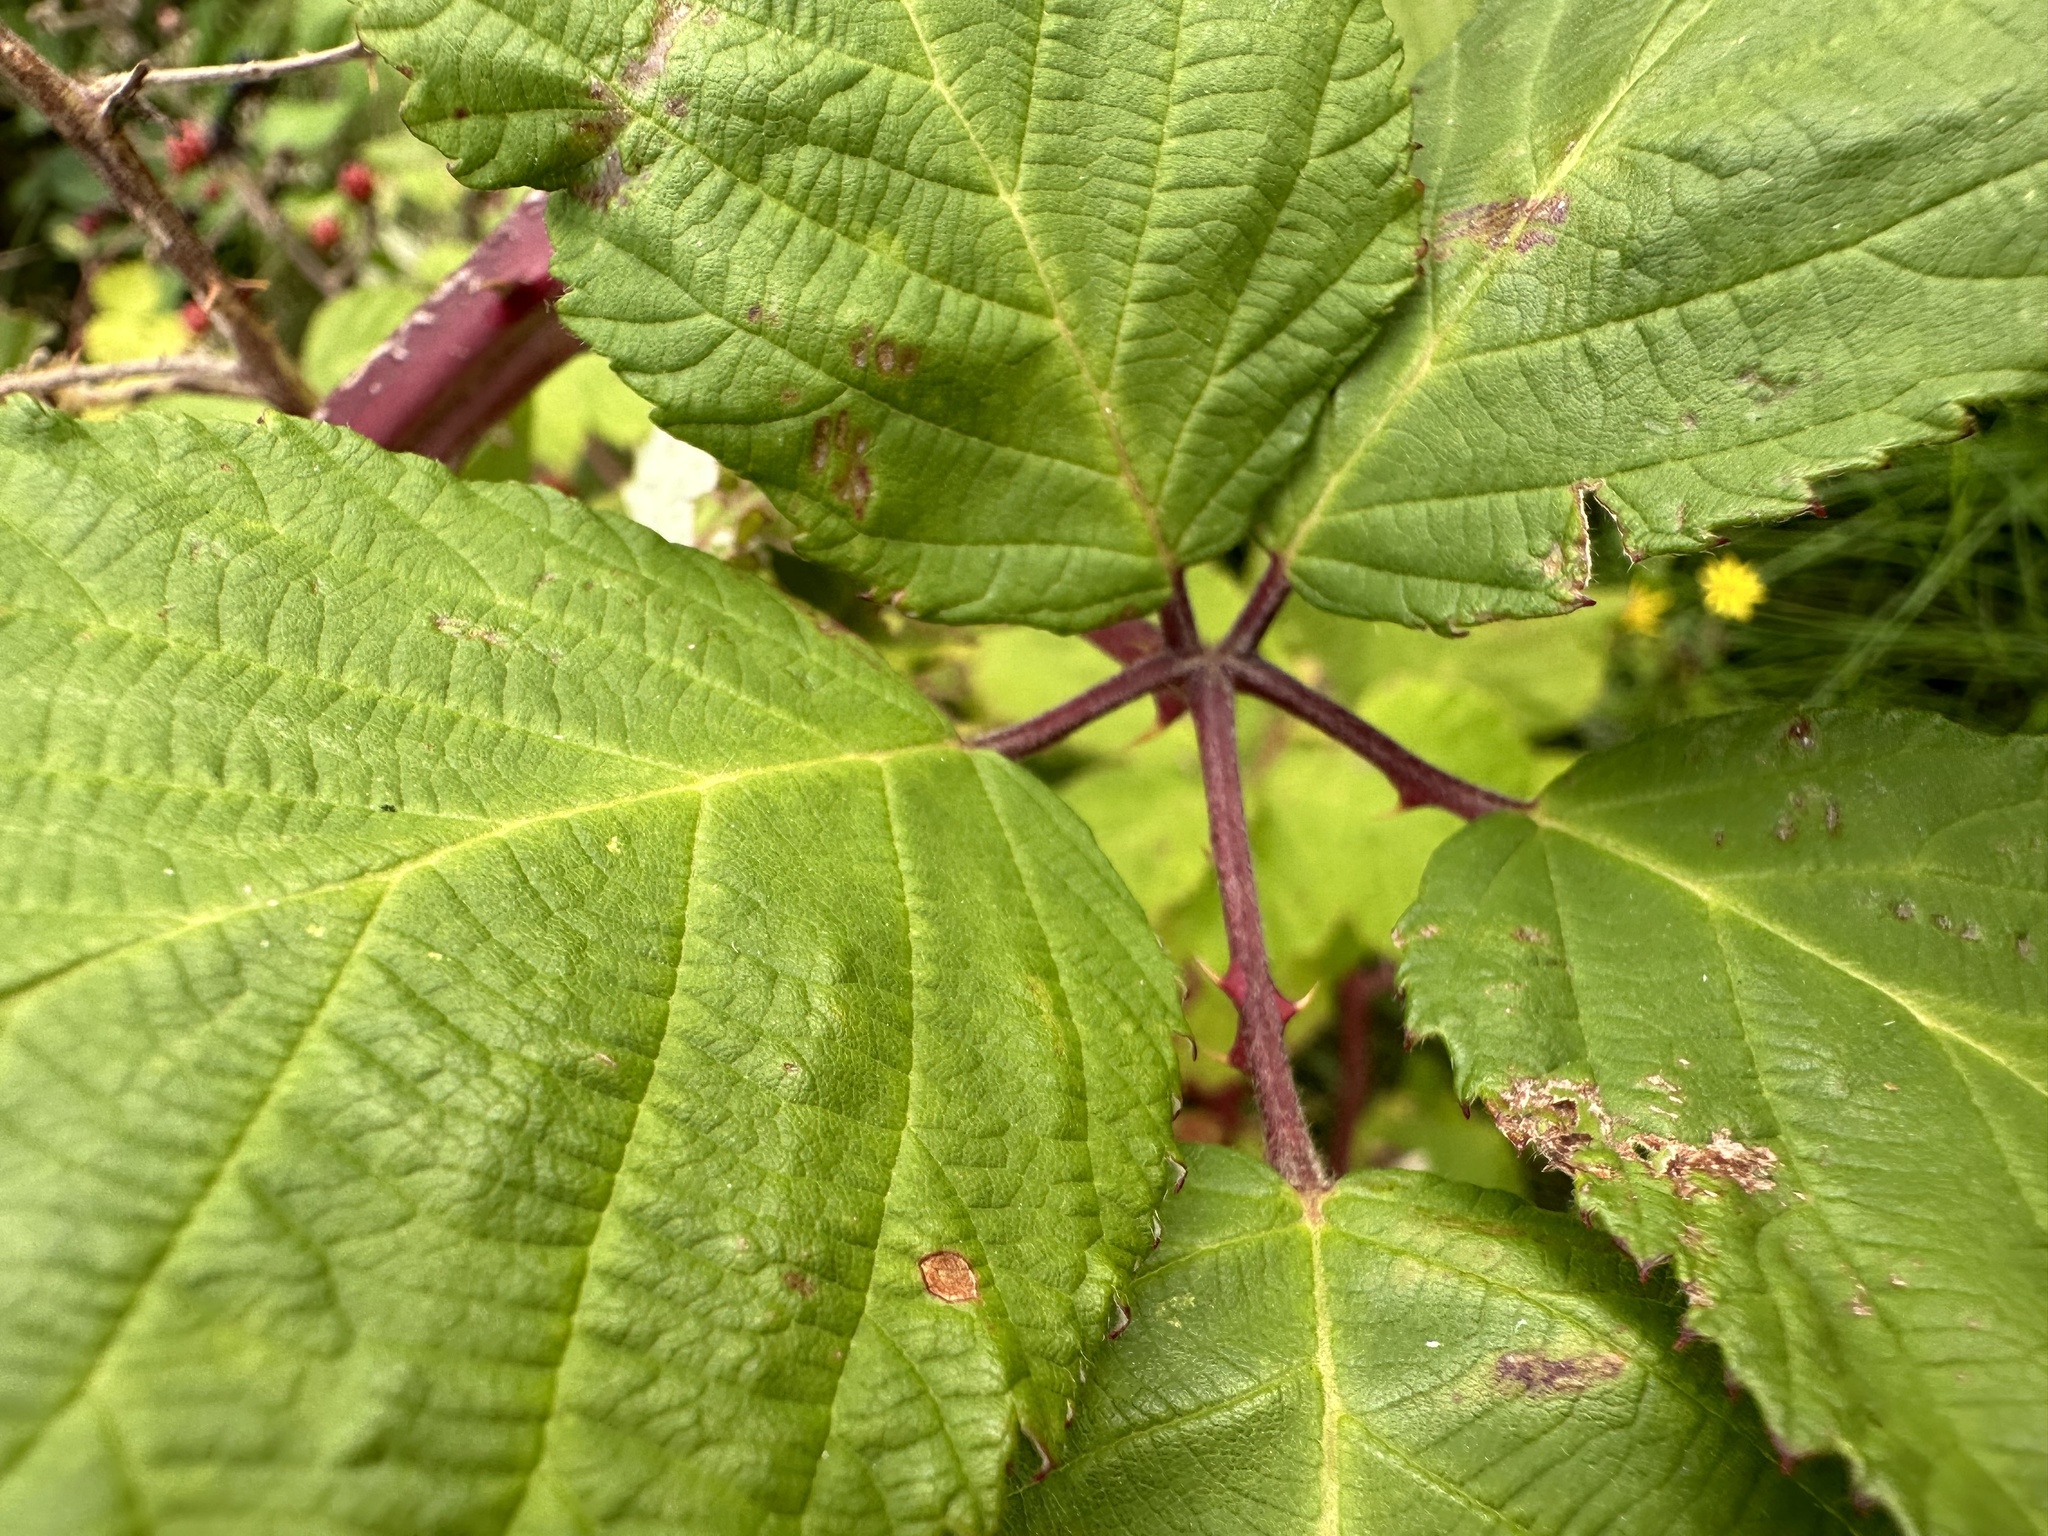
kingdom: Plantae
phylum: Tracheophyta
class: Magnoliopsida
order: Rosales
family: Rosaceae
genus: Rubus
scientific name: Rubus armeniacus
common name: Himalayan blackberry
